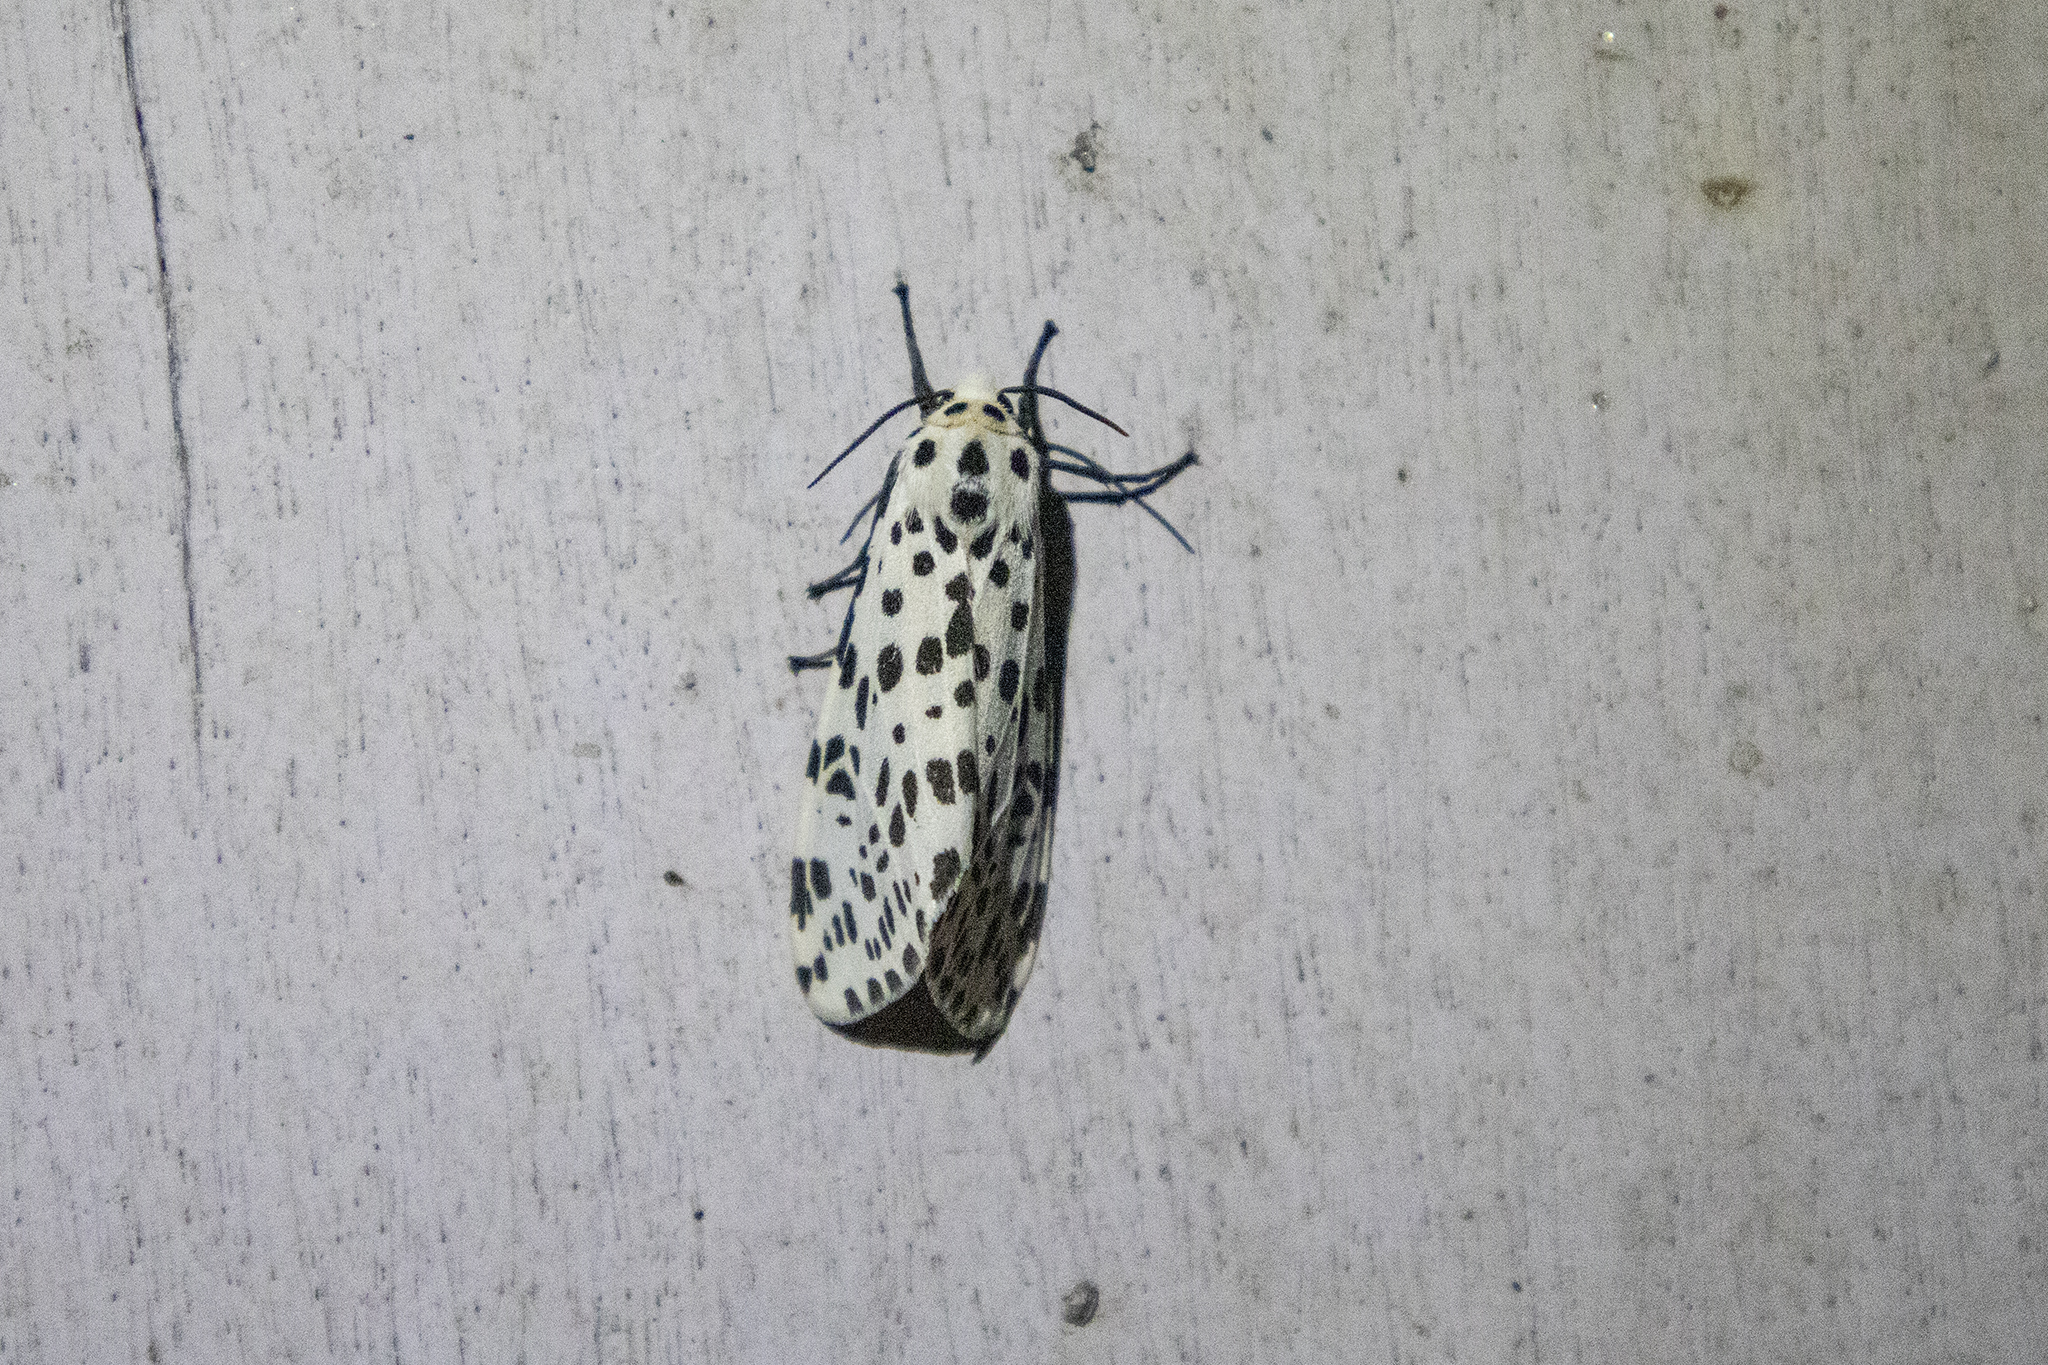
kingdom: Animalia
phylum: Arthropoda
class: Insecta
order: Lepidoptera
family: Erebidae
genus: Juxtarctia
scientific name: Juxtarctia
